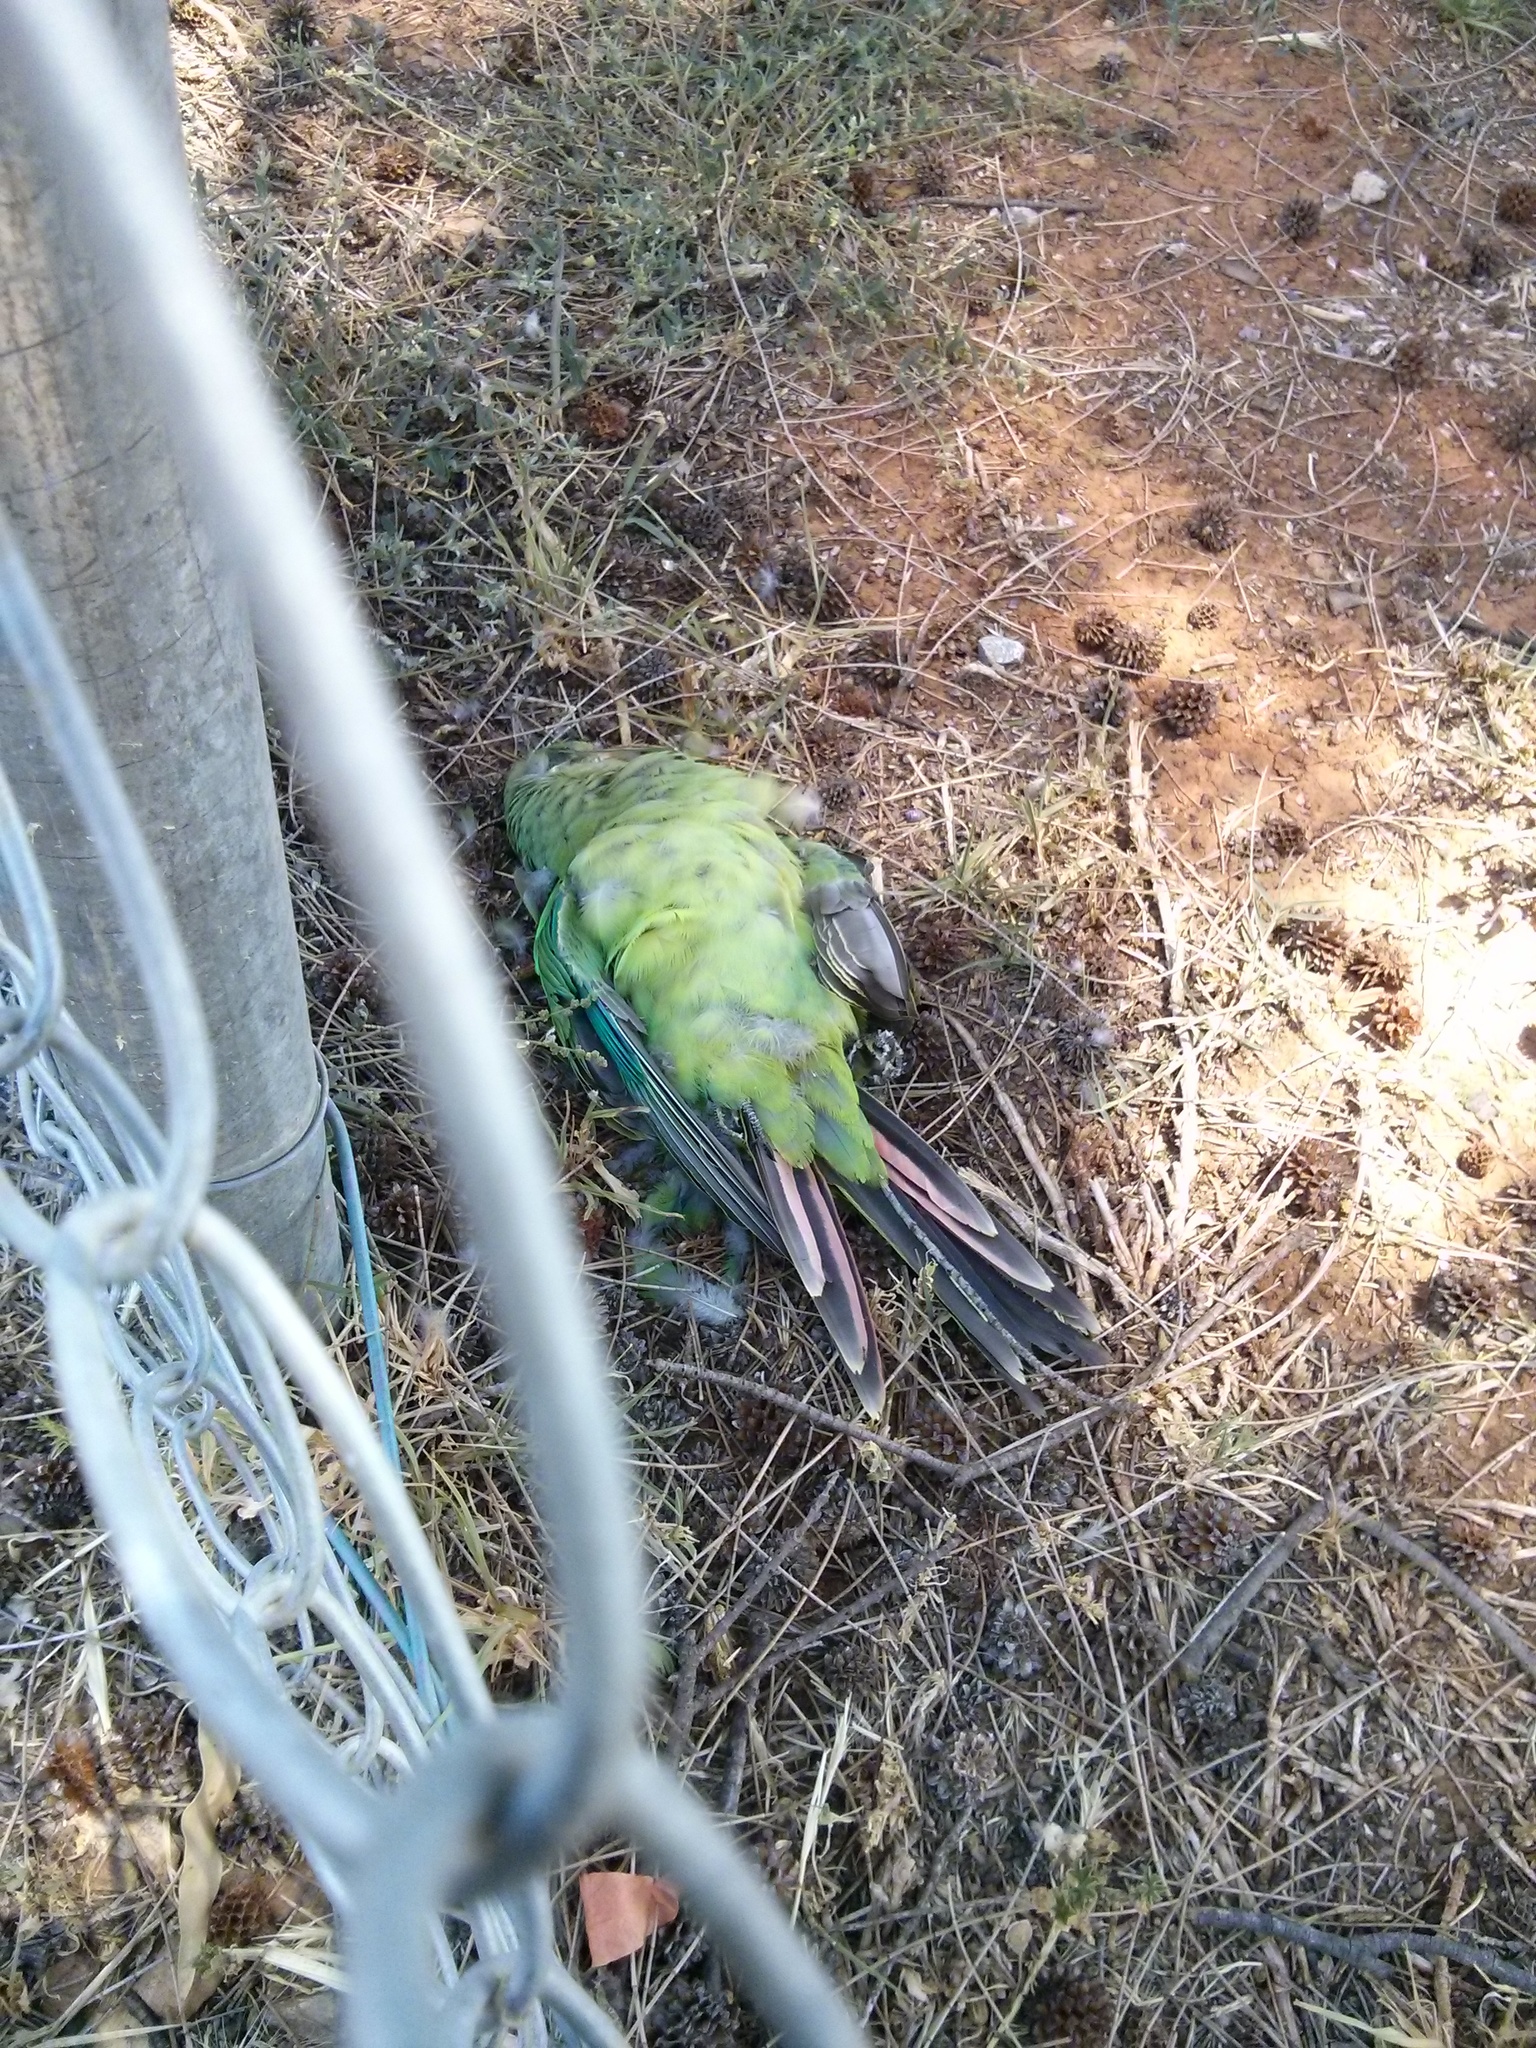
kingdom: Animalia
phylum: Chordata
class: Aves
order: Psittaciformes
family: Psittacidae
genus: Polytelis
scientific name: Polytelis swainsonii
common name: Superb parrot
